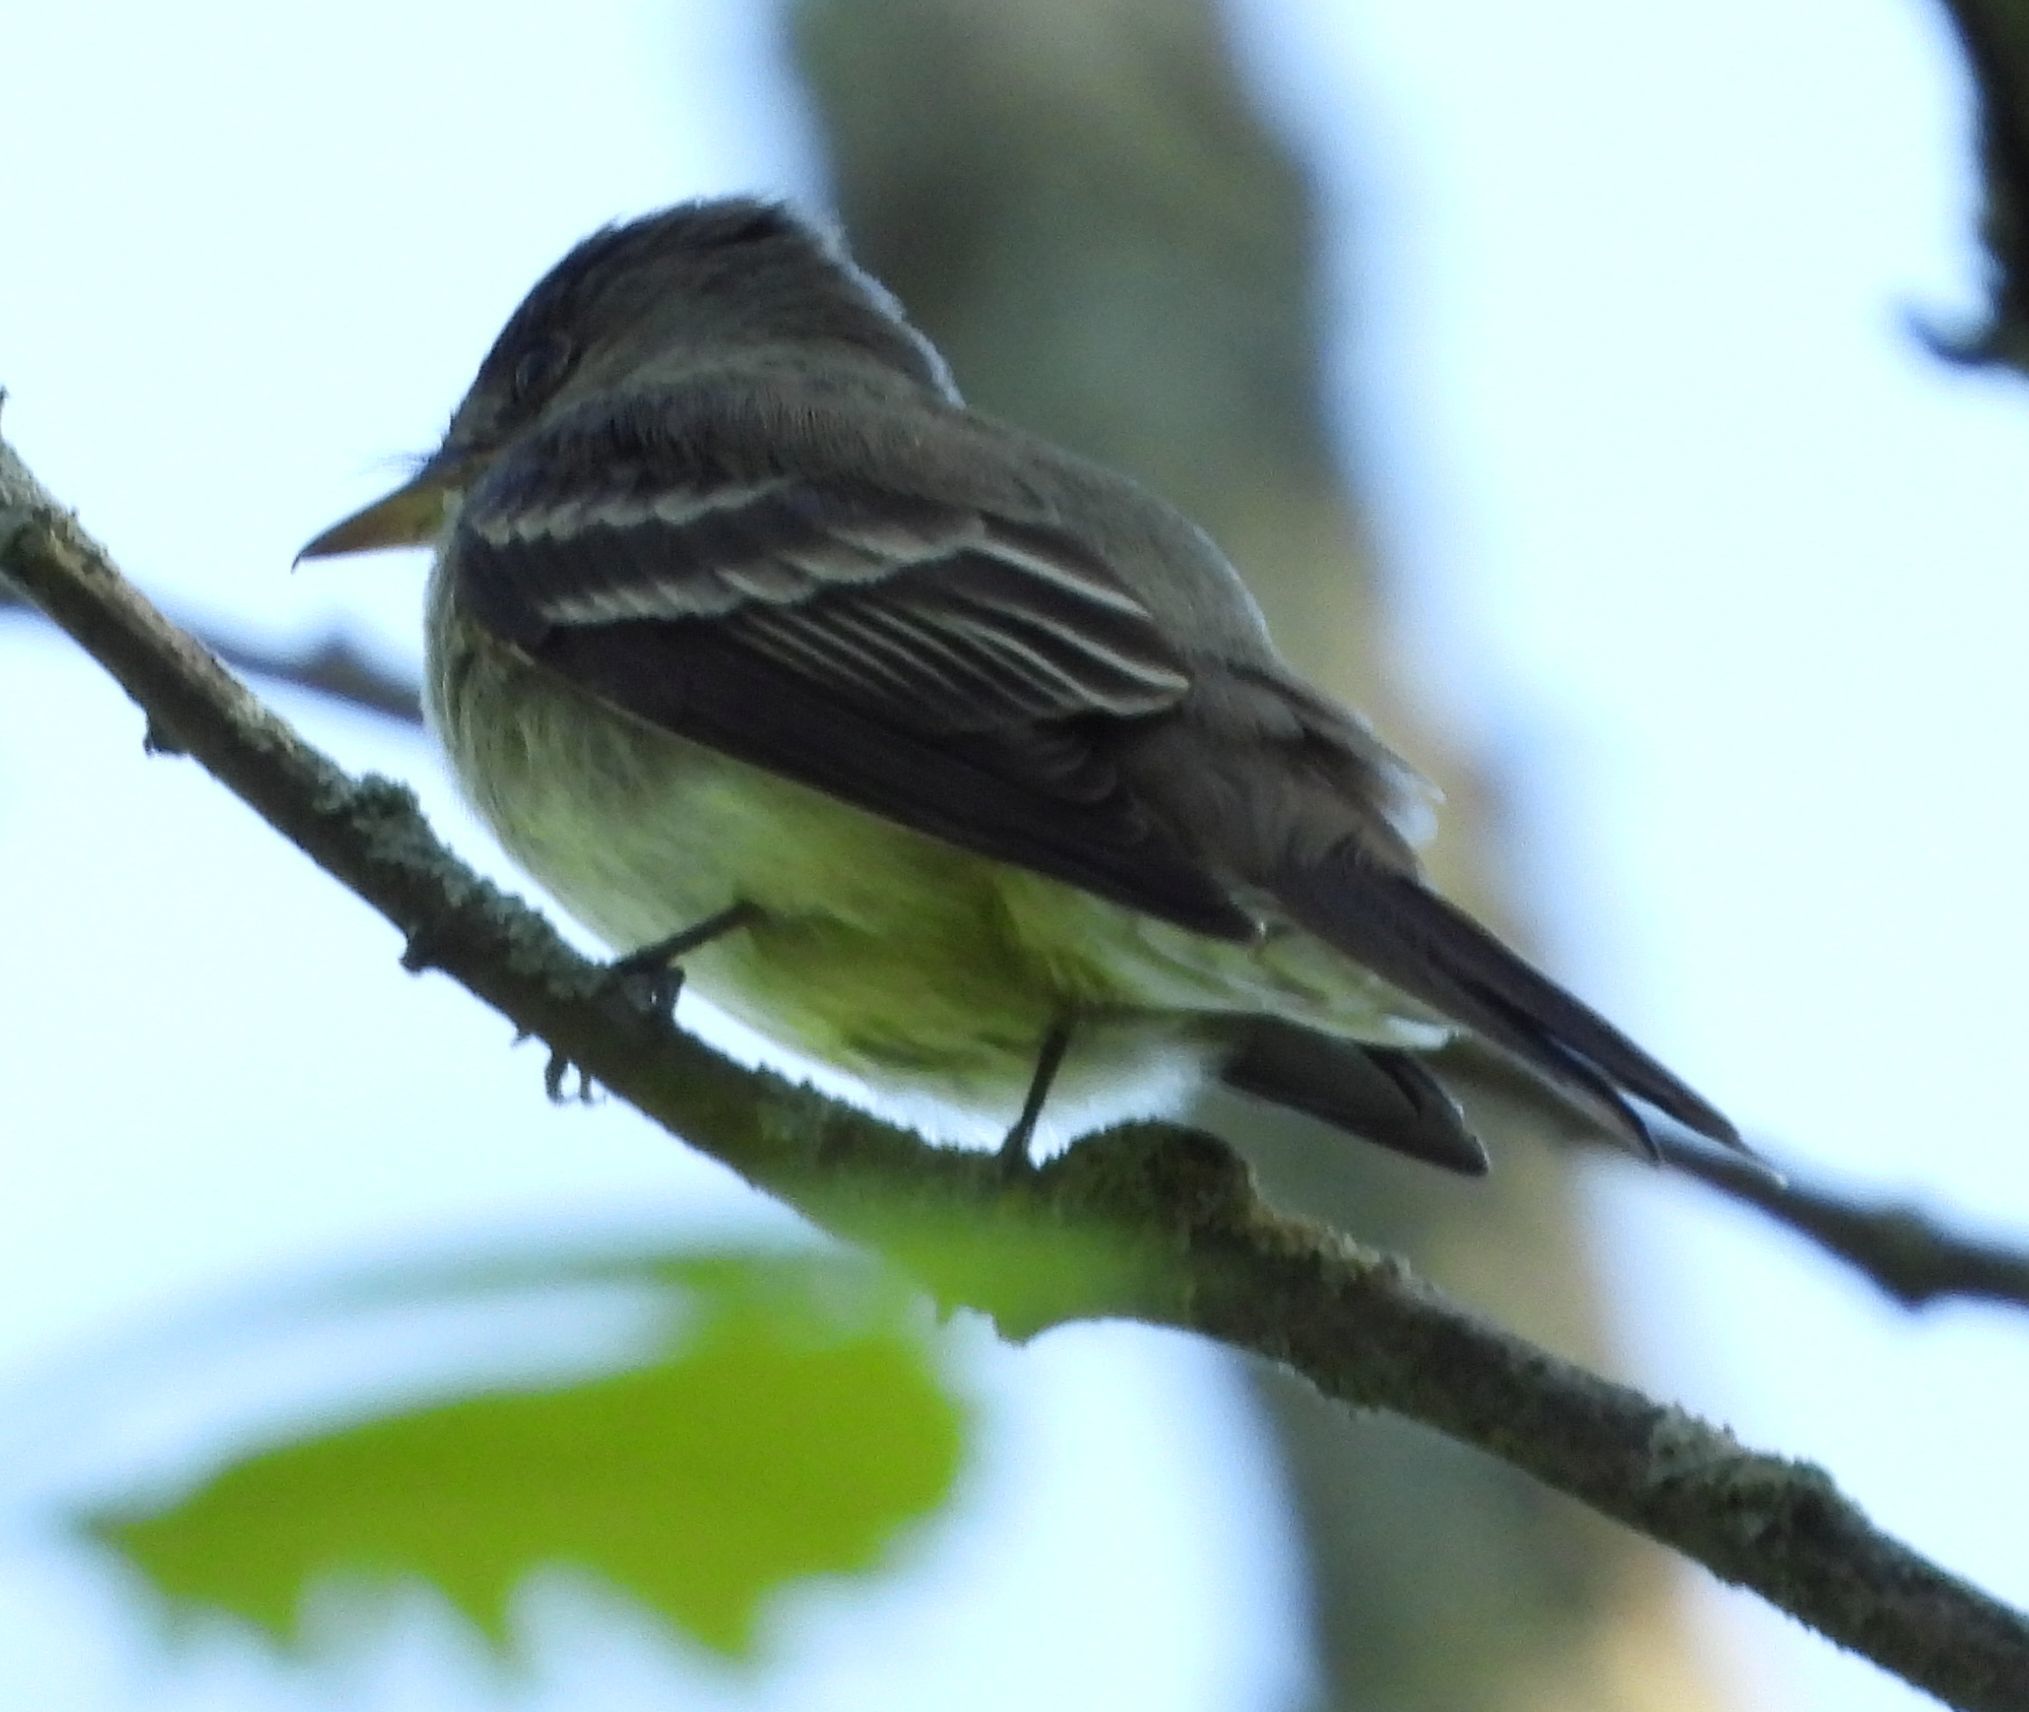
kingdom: Animalia
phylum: Chordata
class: Aves
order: Passeriformes
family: Tyrannidae
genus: Contopus
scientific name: Contopus virens
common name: Eastern wood-pewee
